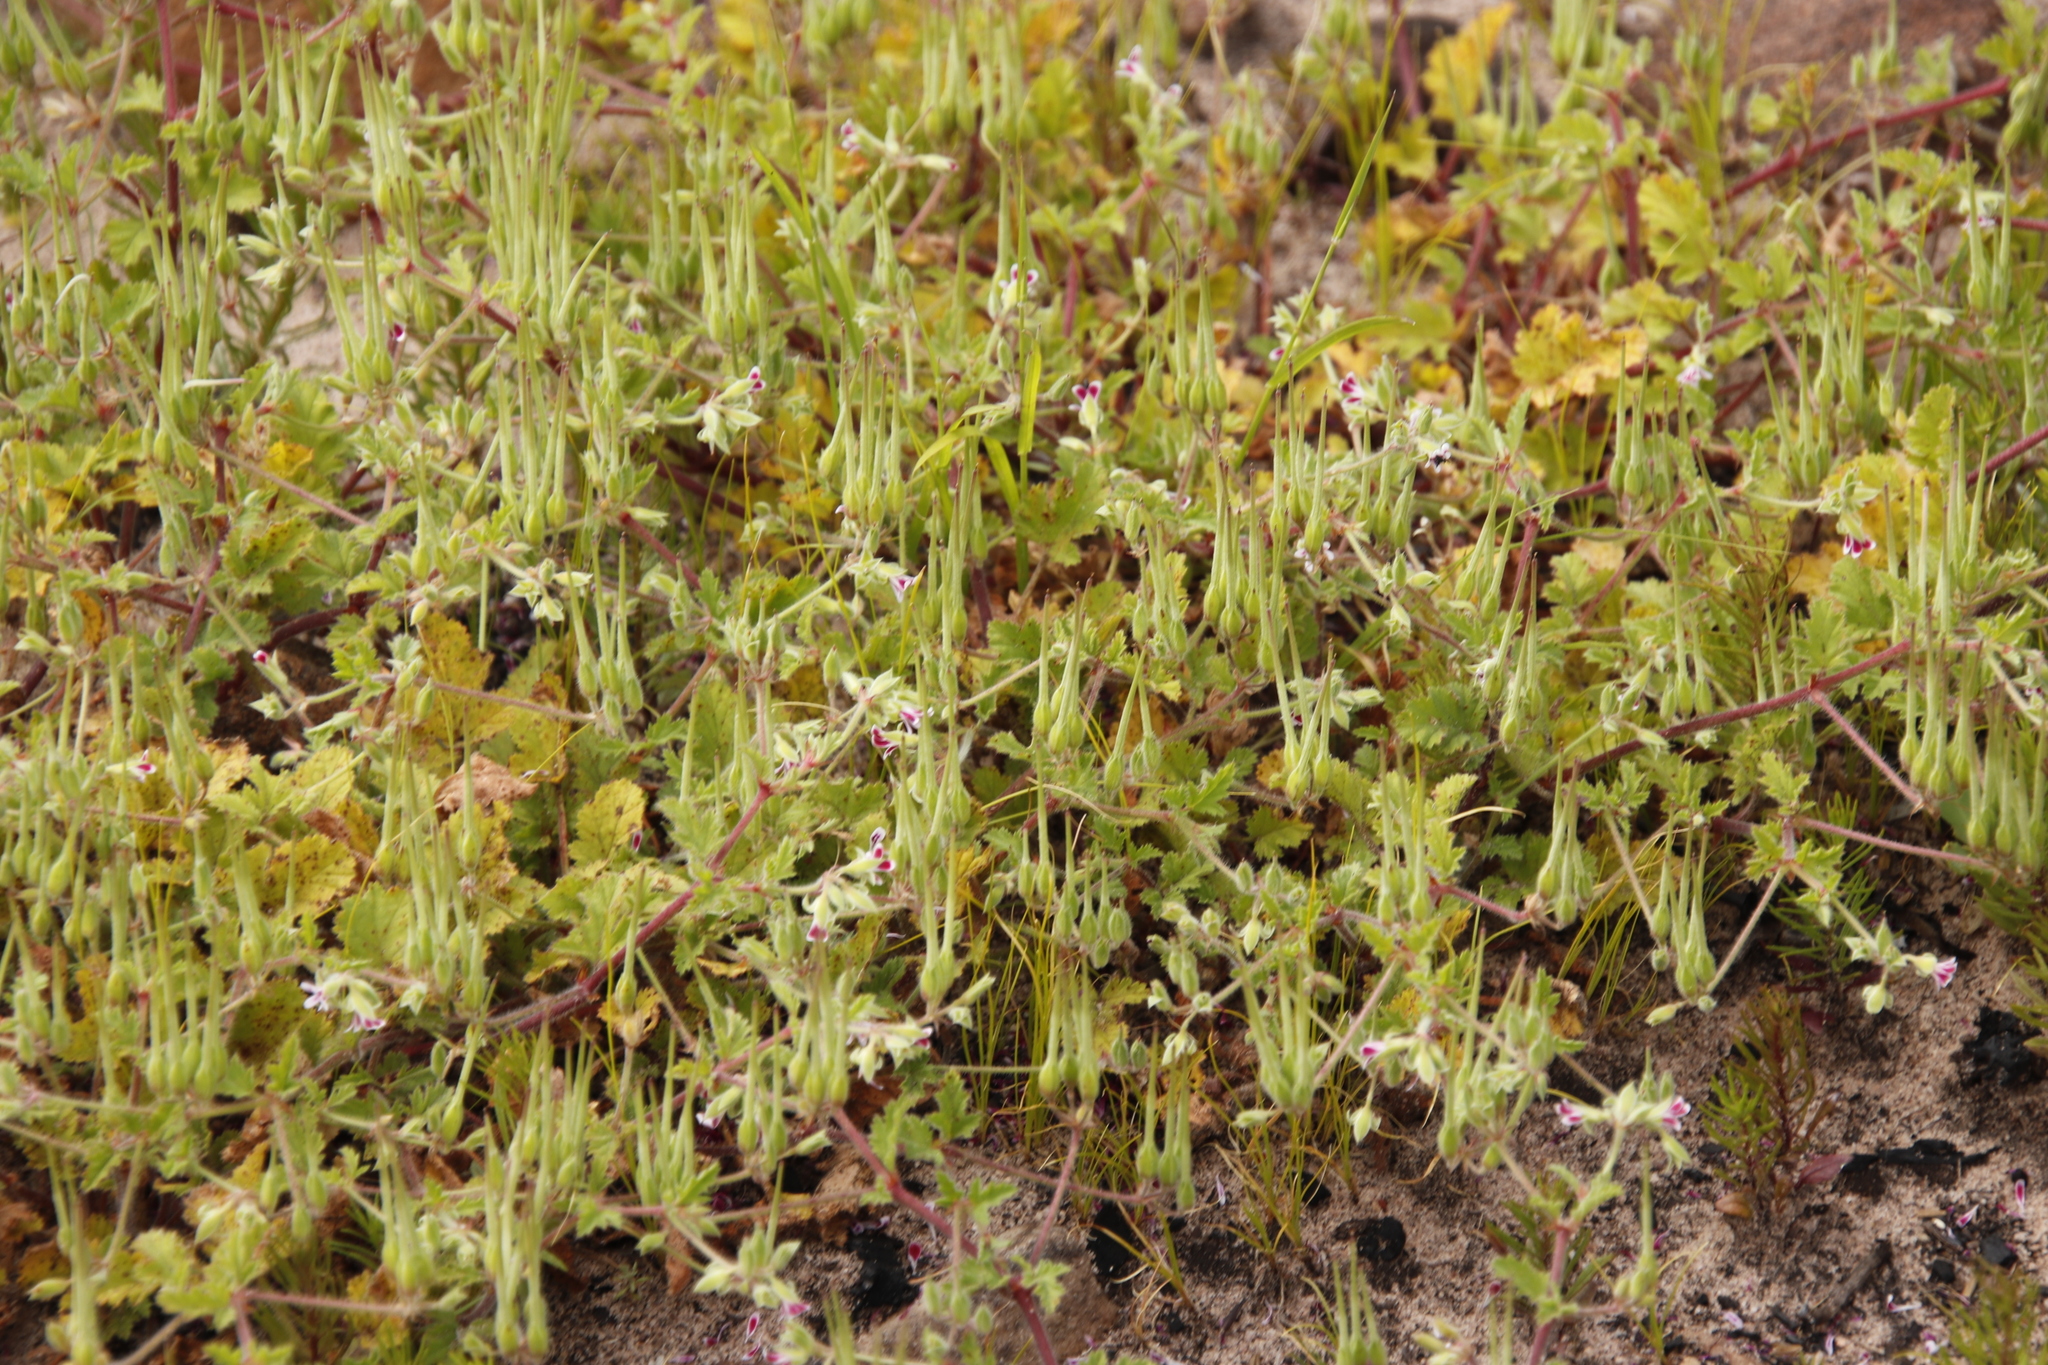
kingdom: Plantae
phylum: Tracheophyta
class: Magnoliopsida
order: Geraniales
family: Geraniaceae
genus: Pelargonium
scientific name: Pelargonium althaeoides
